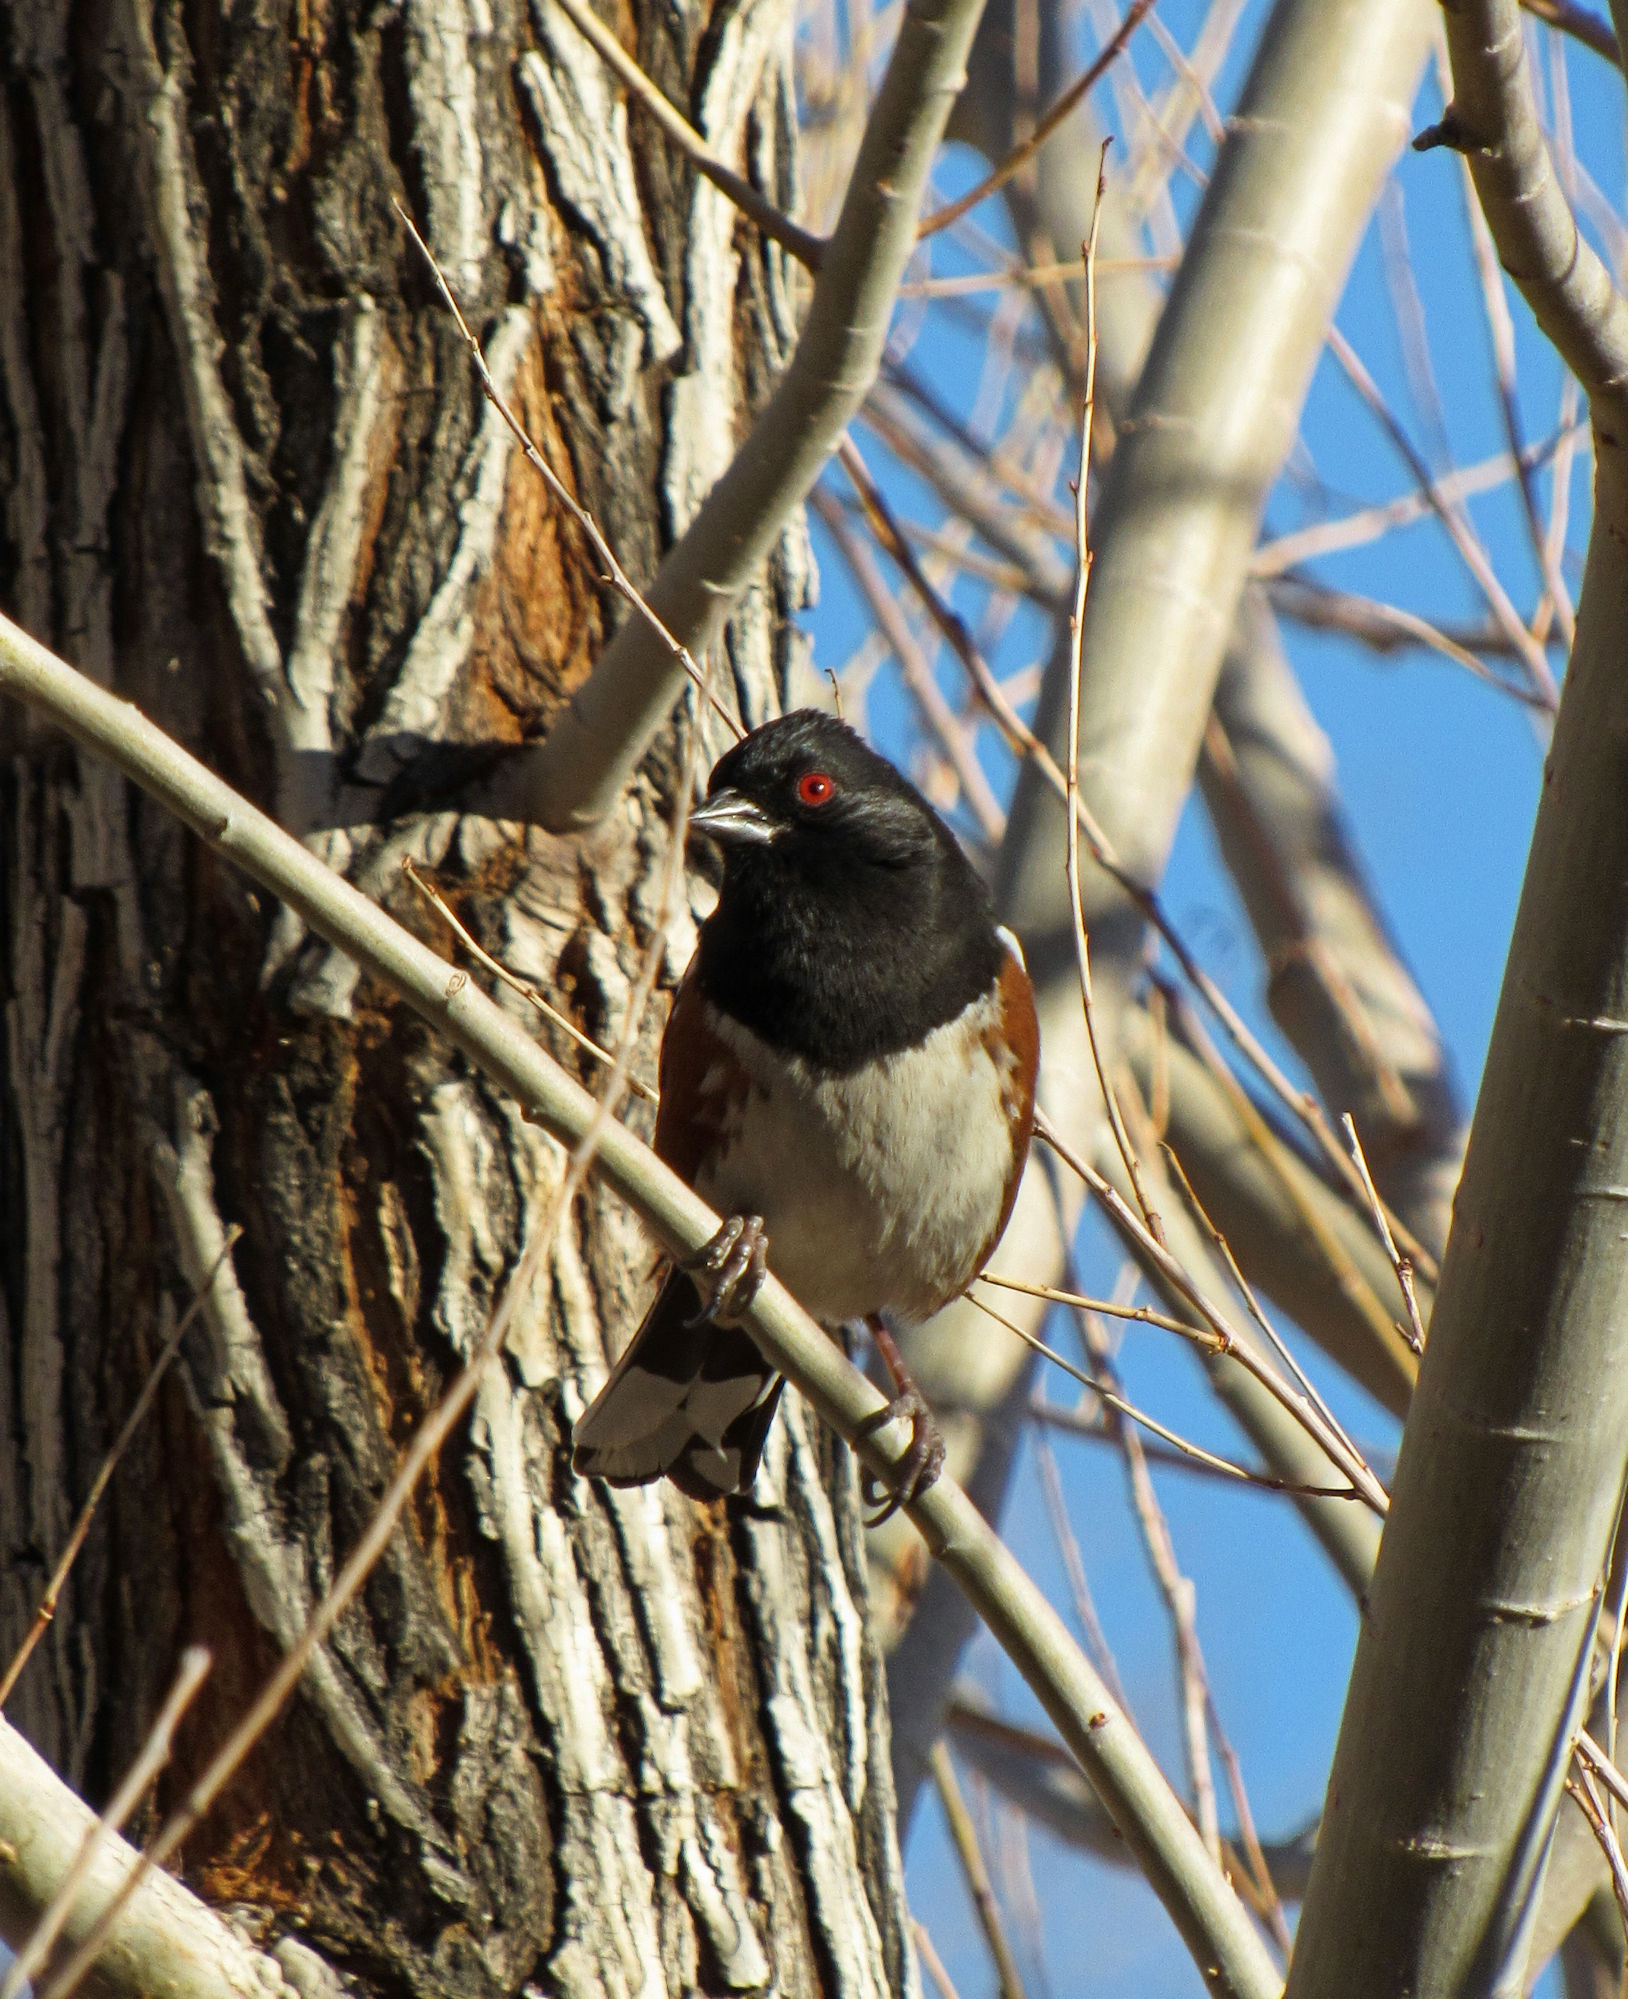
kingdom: Animalia
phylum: Chordata
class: Aves
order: Passeriformes
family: Passerellidae
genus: Pipilo
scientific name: Pipilo maculatus
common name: Spotted towhee
